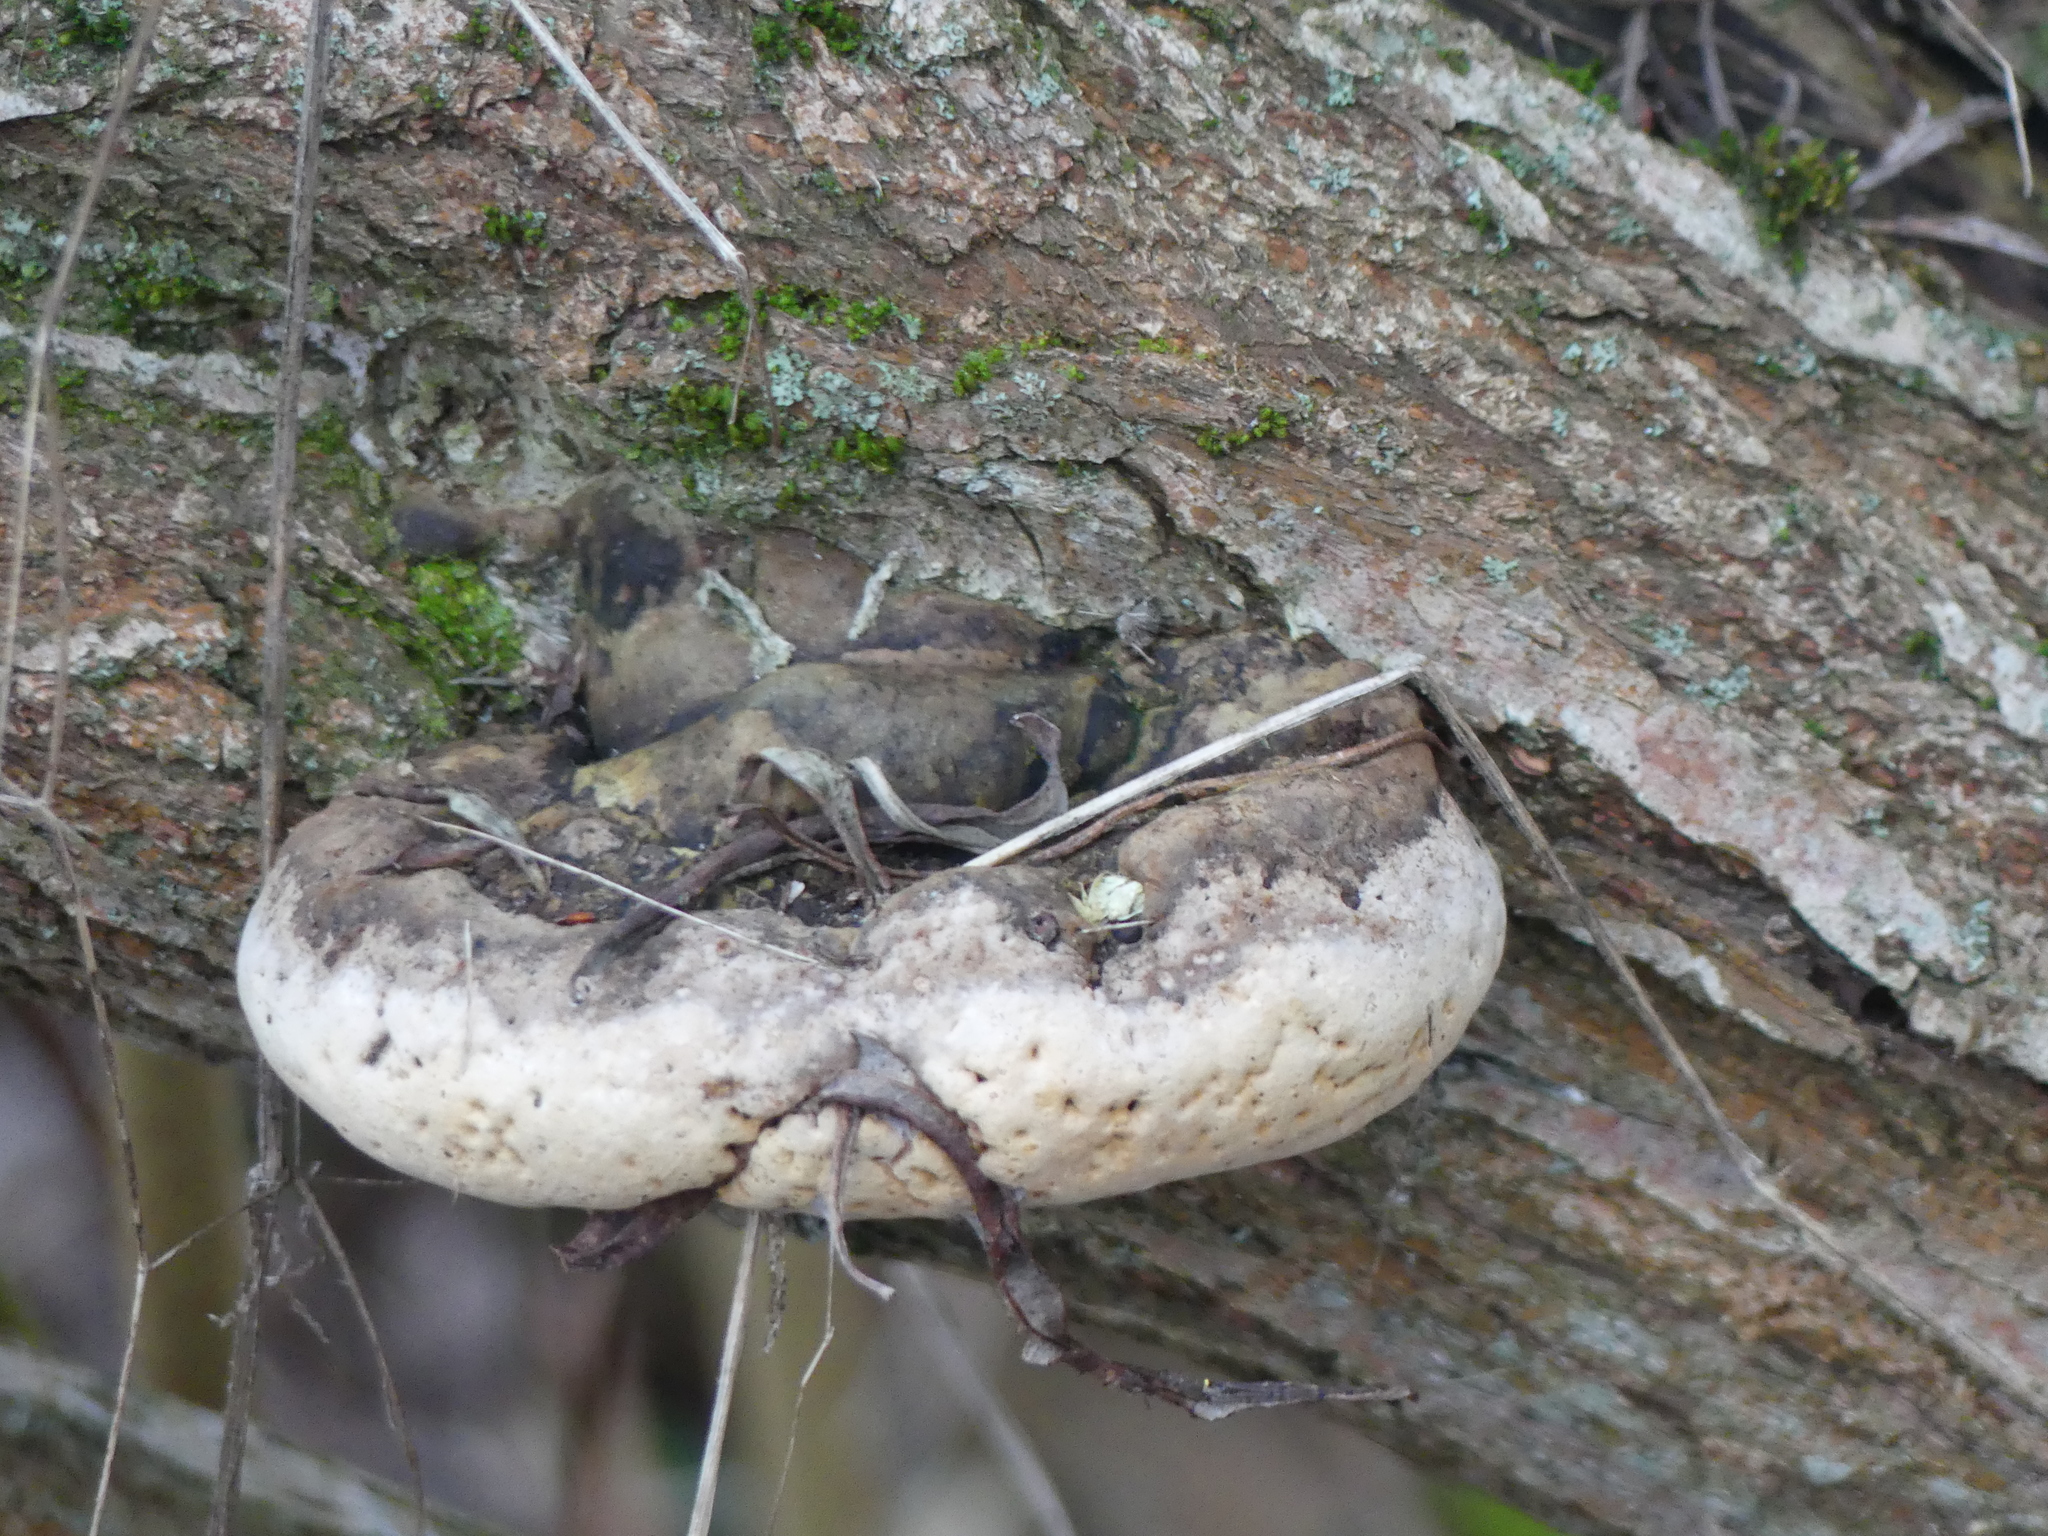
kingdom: Fungi
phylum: Basidiomycota
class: Agaricomycetes
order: Hymenochaetales
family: Hymenochaetaceae
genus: Phellinus
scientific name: Phellinus igniarius
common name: Willow bracket
